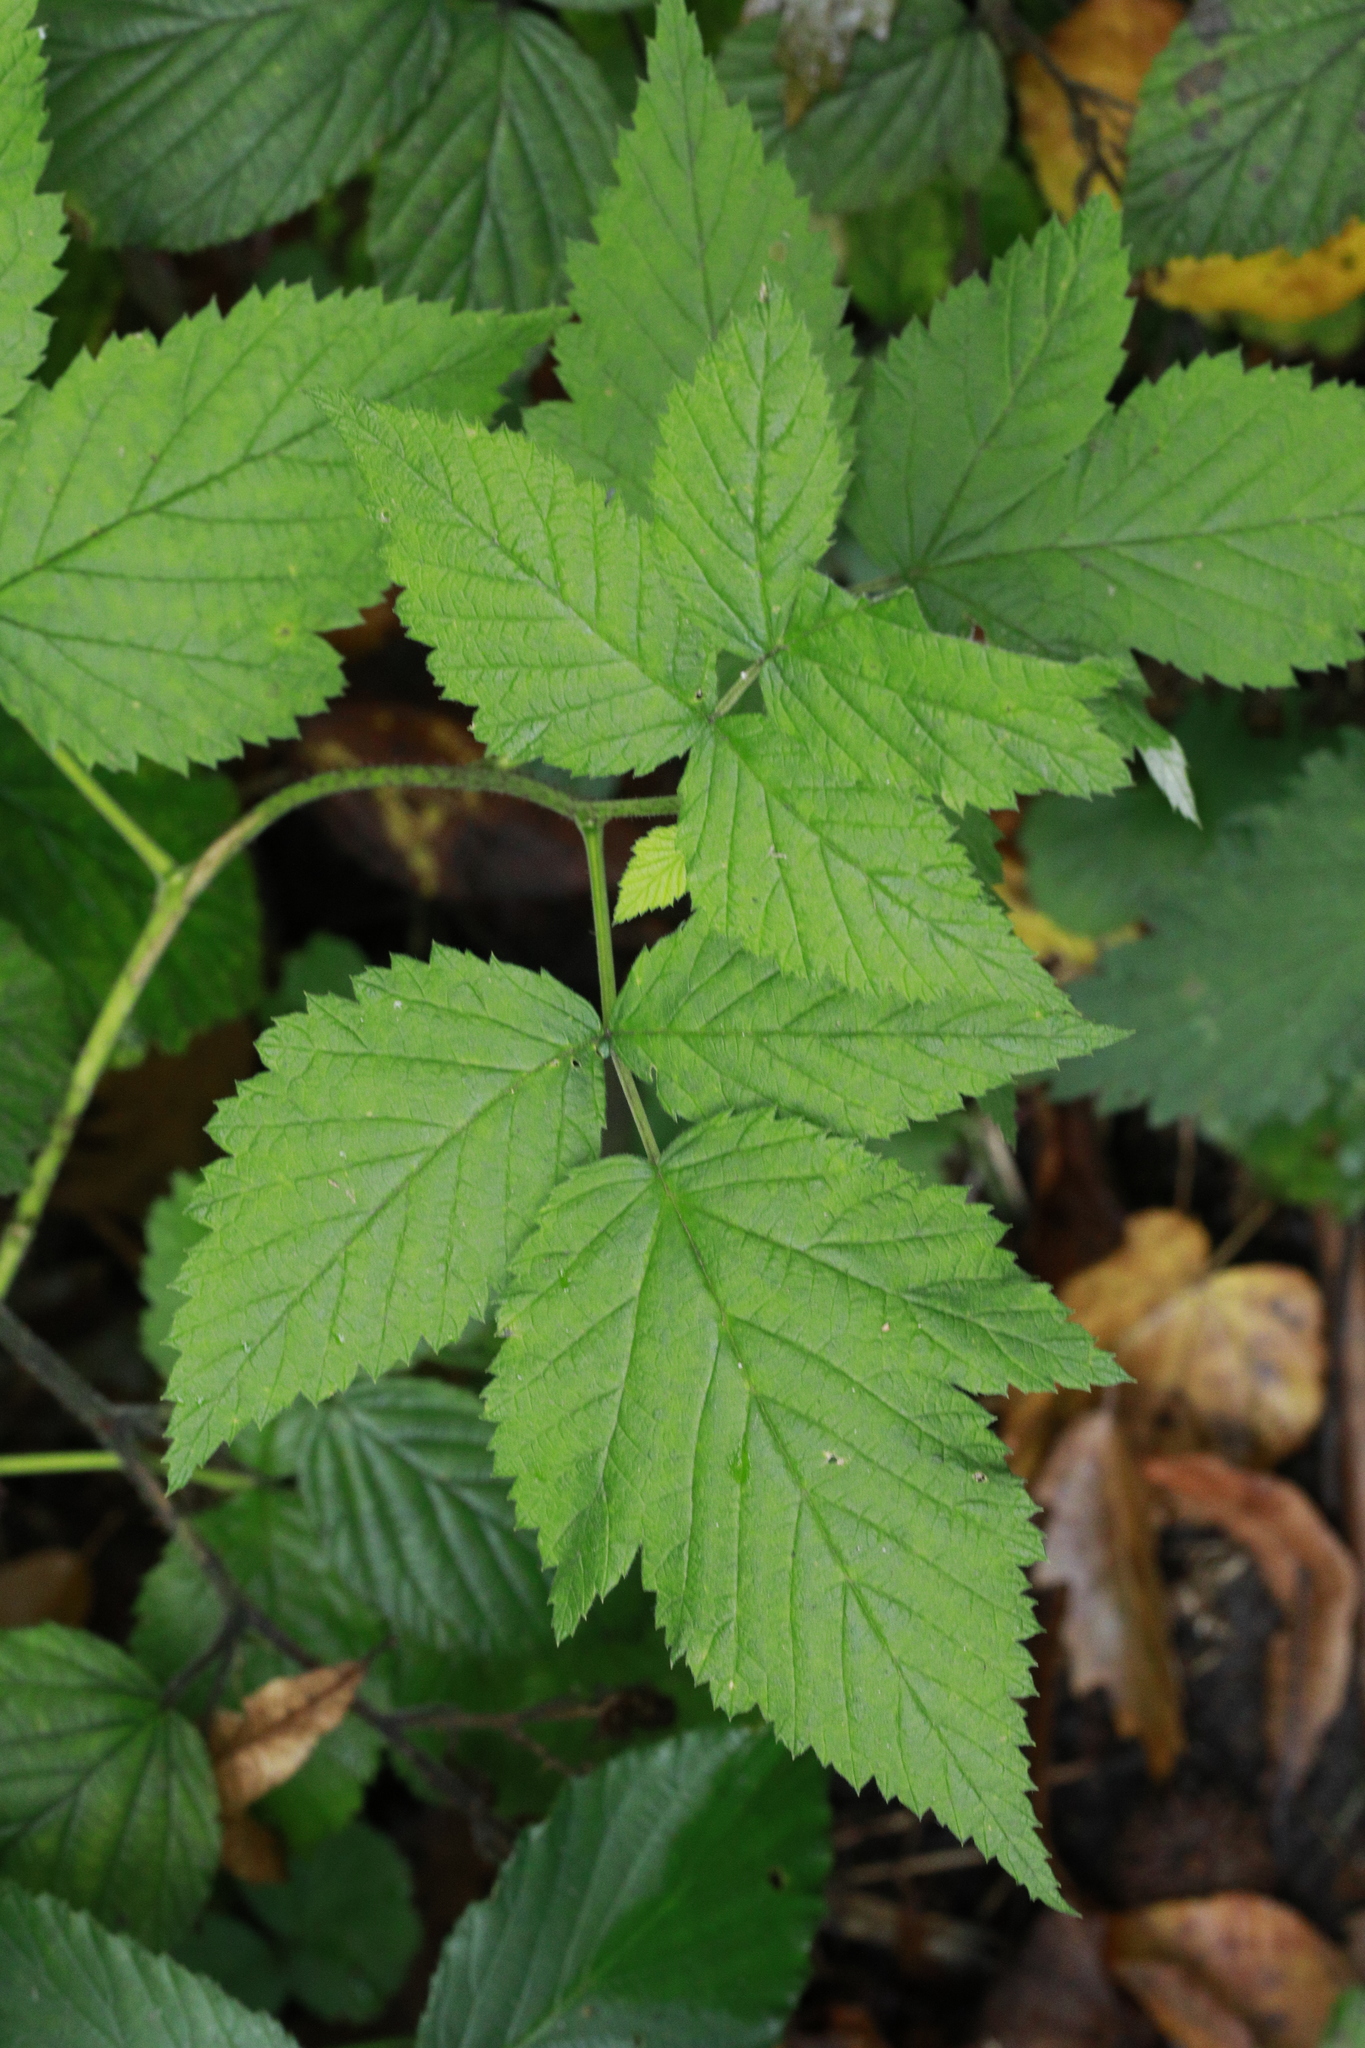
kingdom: Plantae
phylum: Tracheophyta
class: Magnoliopsida
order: Rosales
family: Rosaceae
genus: Rubus
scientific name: Rubus idaeus
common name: Raspberry
